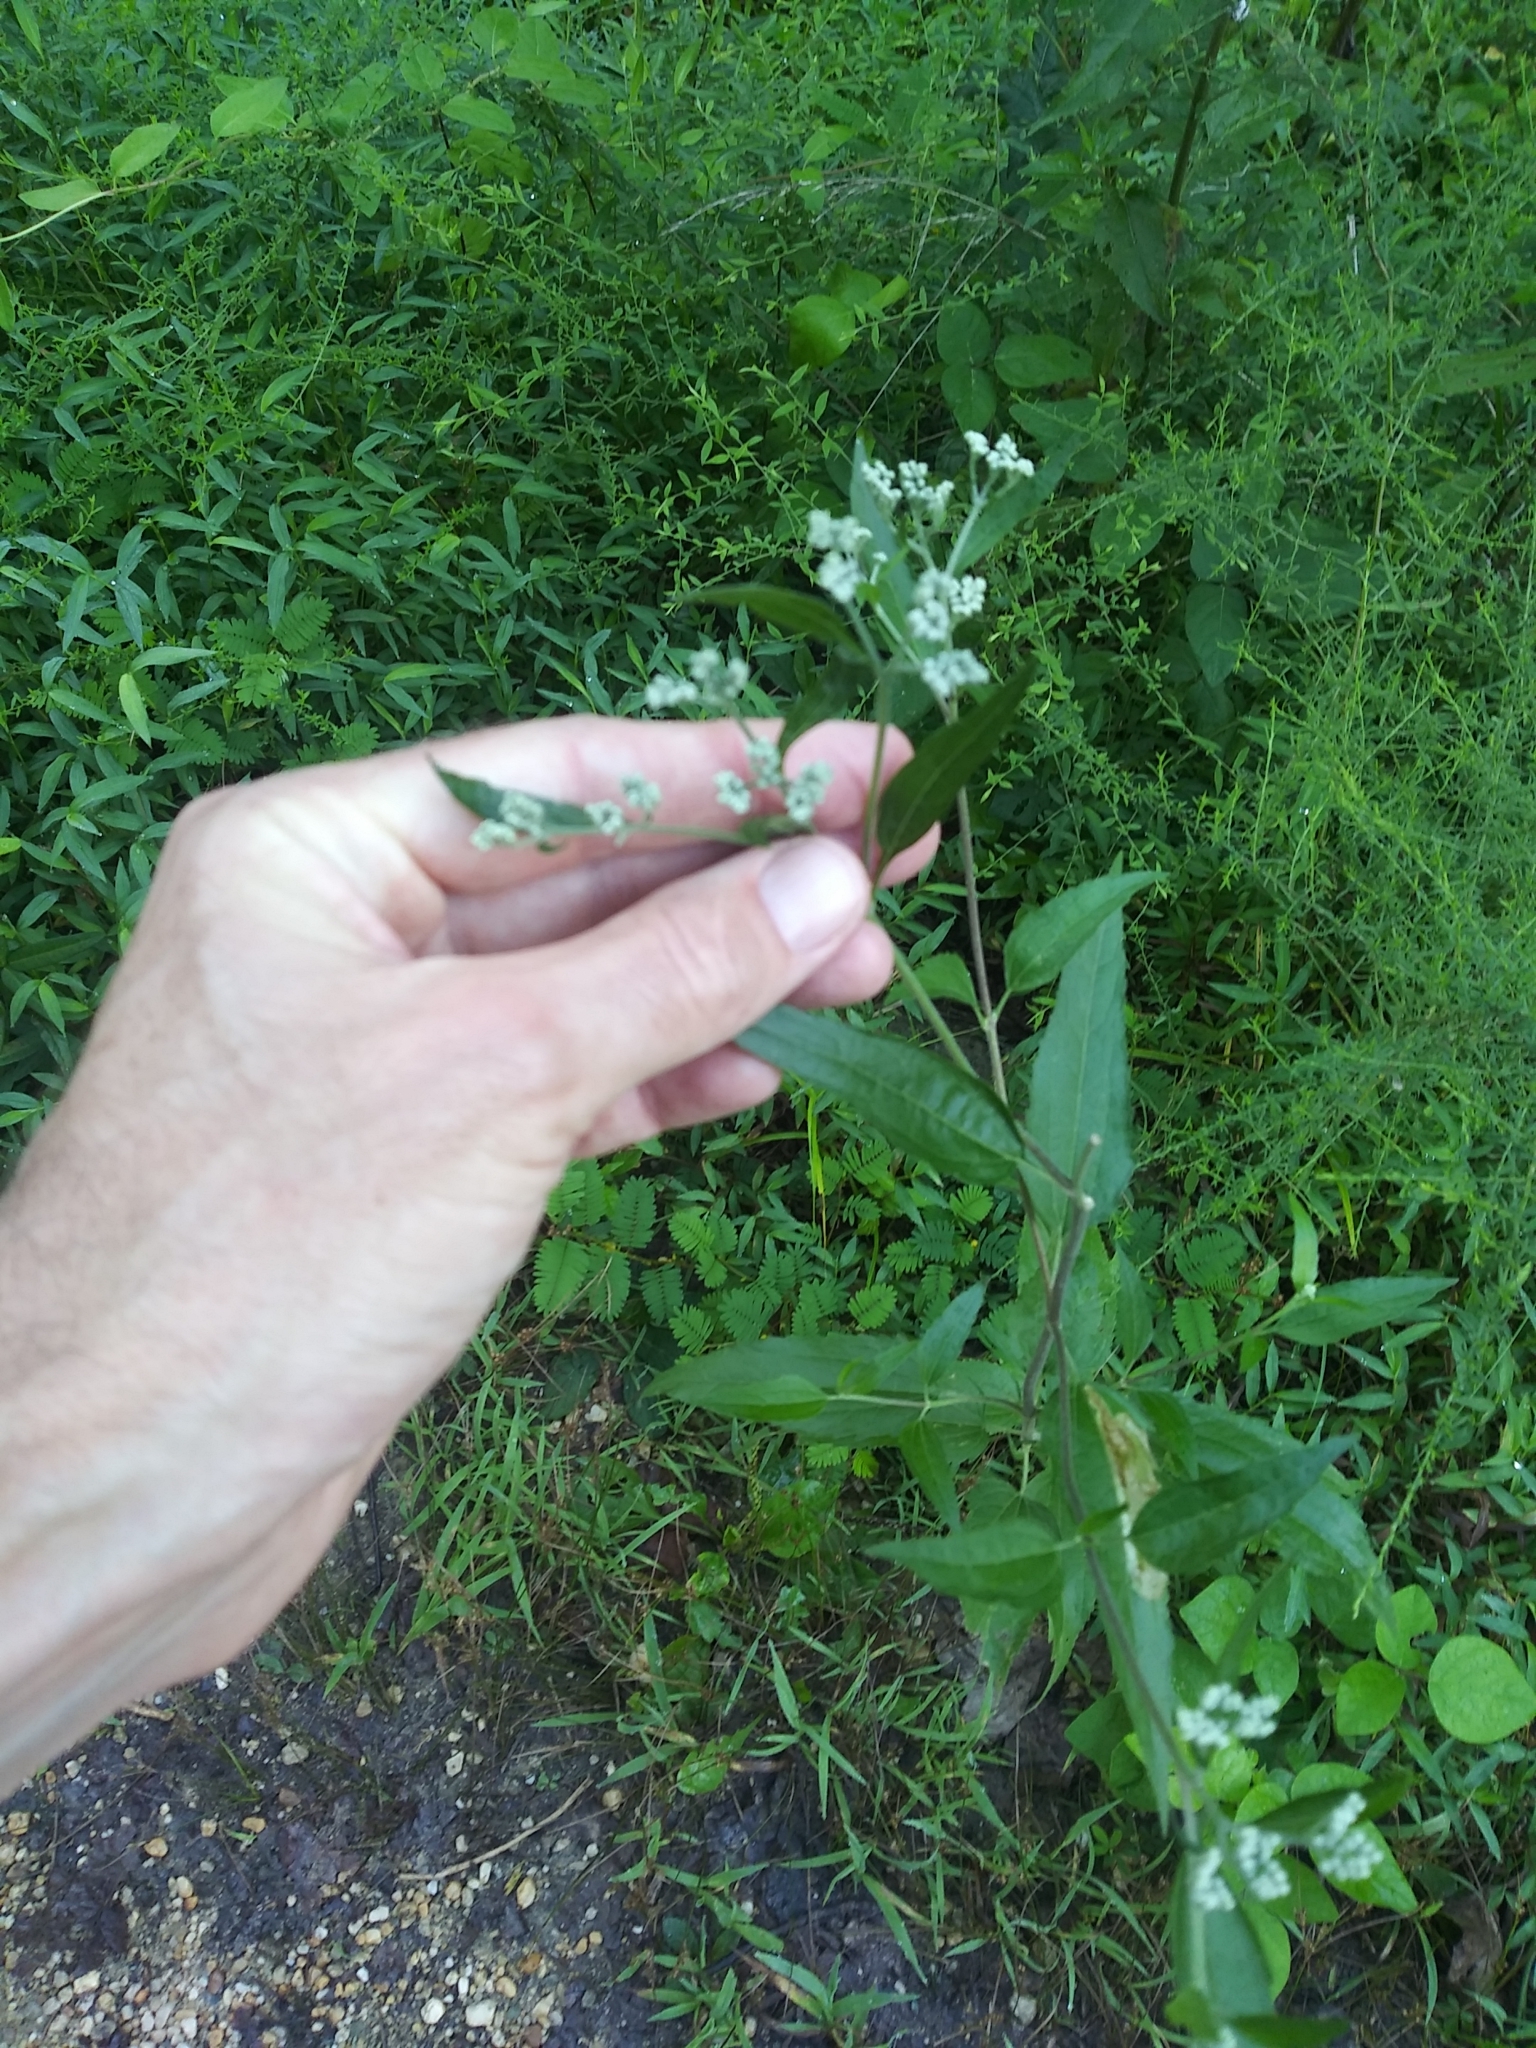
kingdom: Plantae
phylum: Tracheophyta
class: Magnoliopsida
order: Asterales
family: Asteraceae
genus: Eupatorium
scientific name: Eupatorium serotinum
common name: Late boneset
